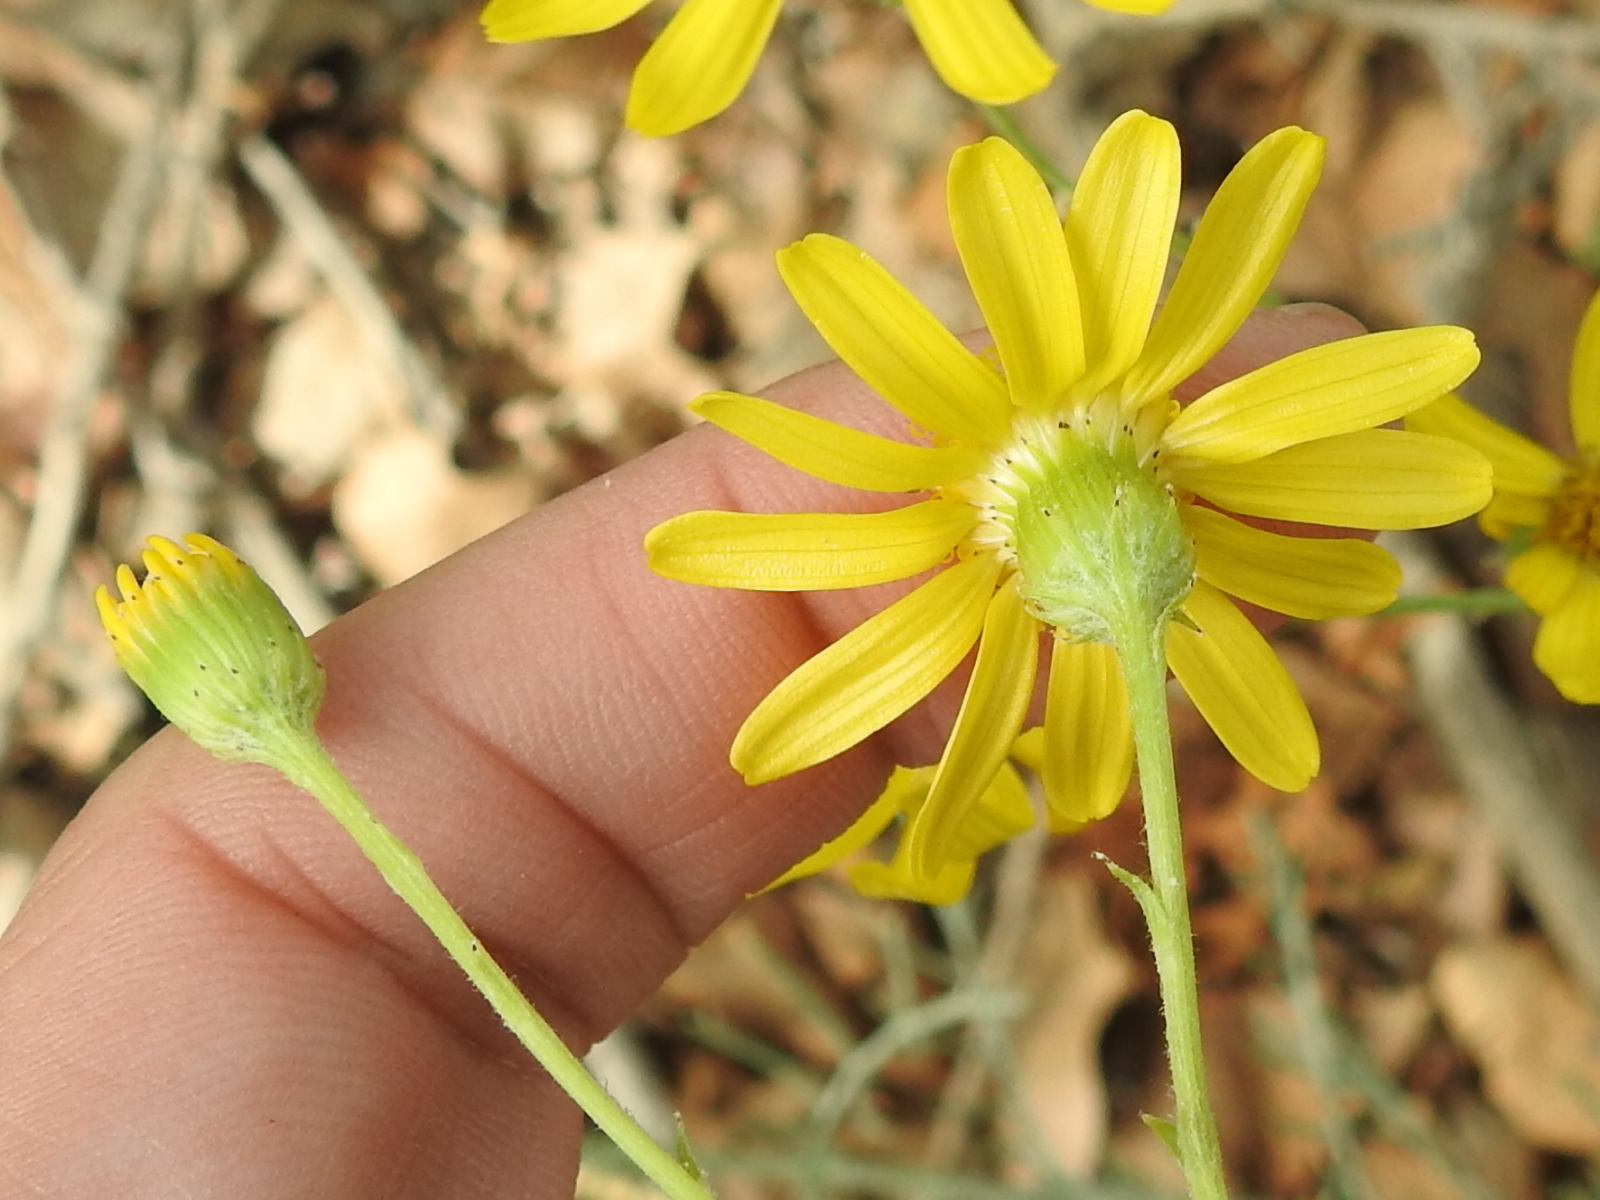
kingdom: Plantae
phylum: Tracheophyta
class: Magnoliopsida
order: Asterales
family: Asteraceae
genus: Senecio
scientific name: Senecio flaccidus
